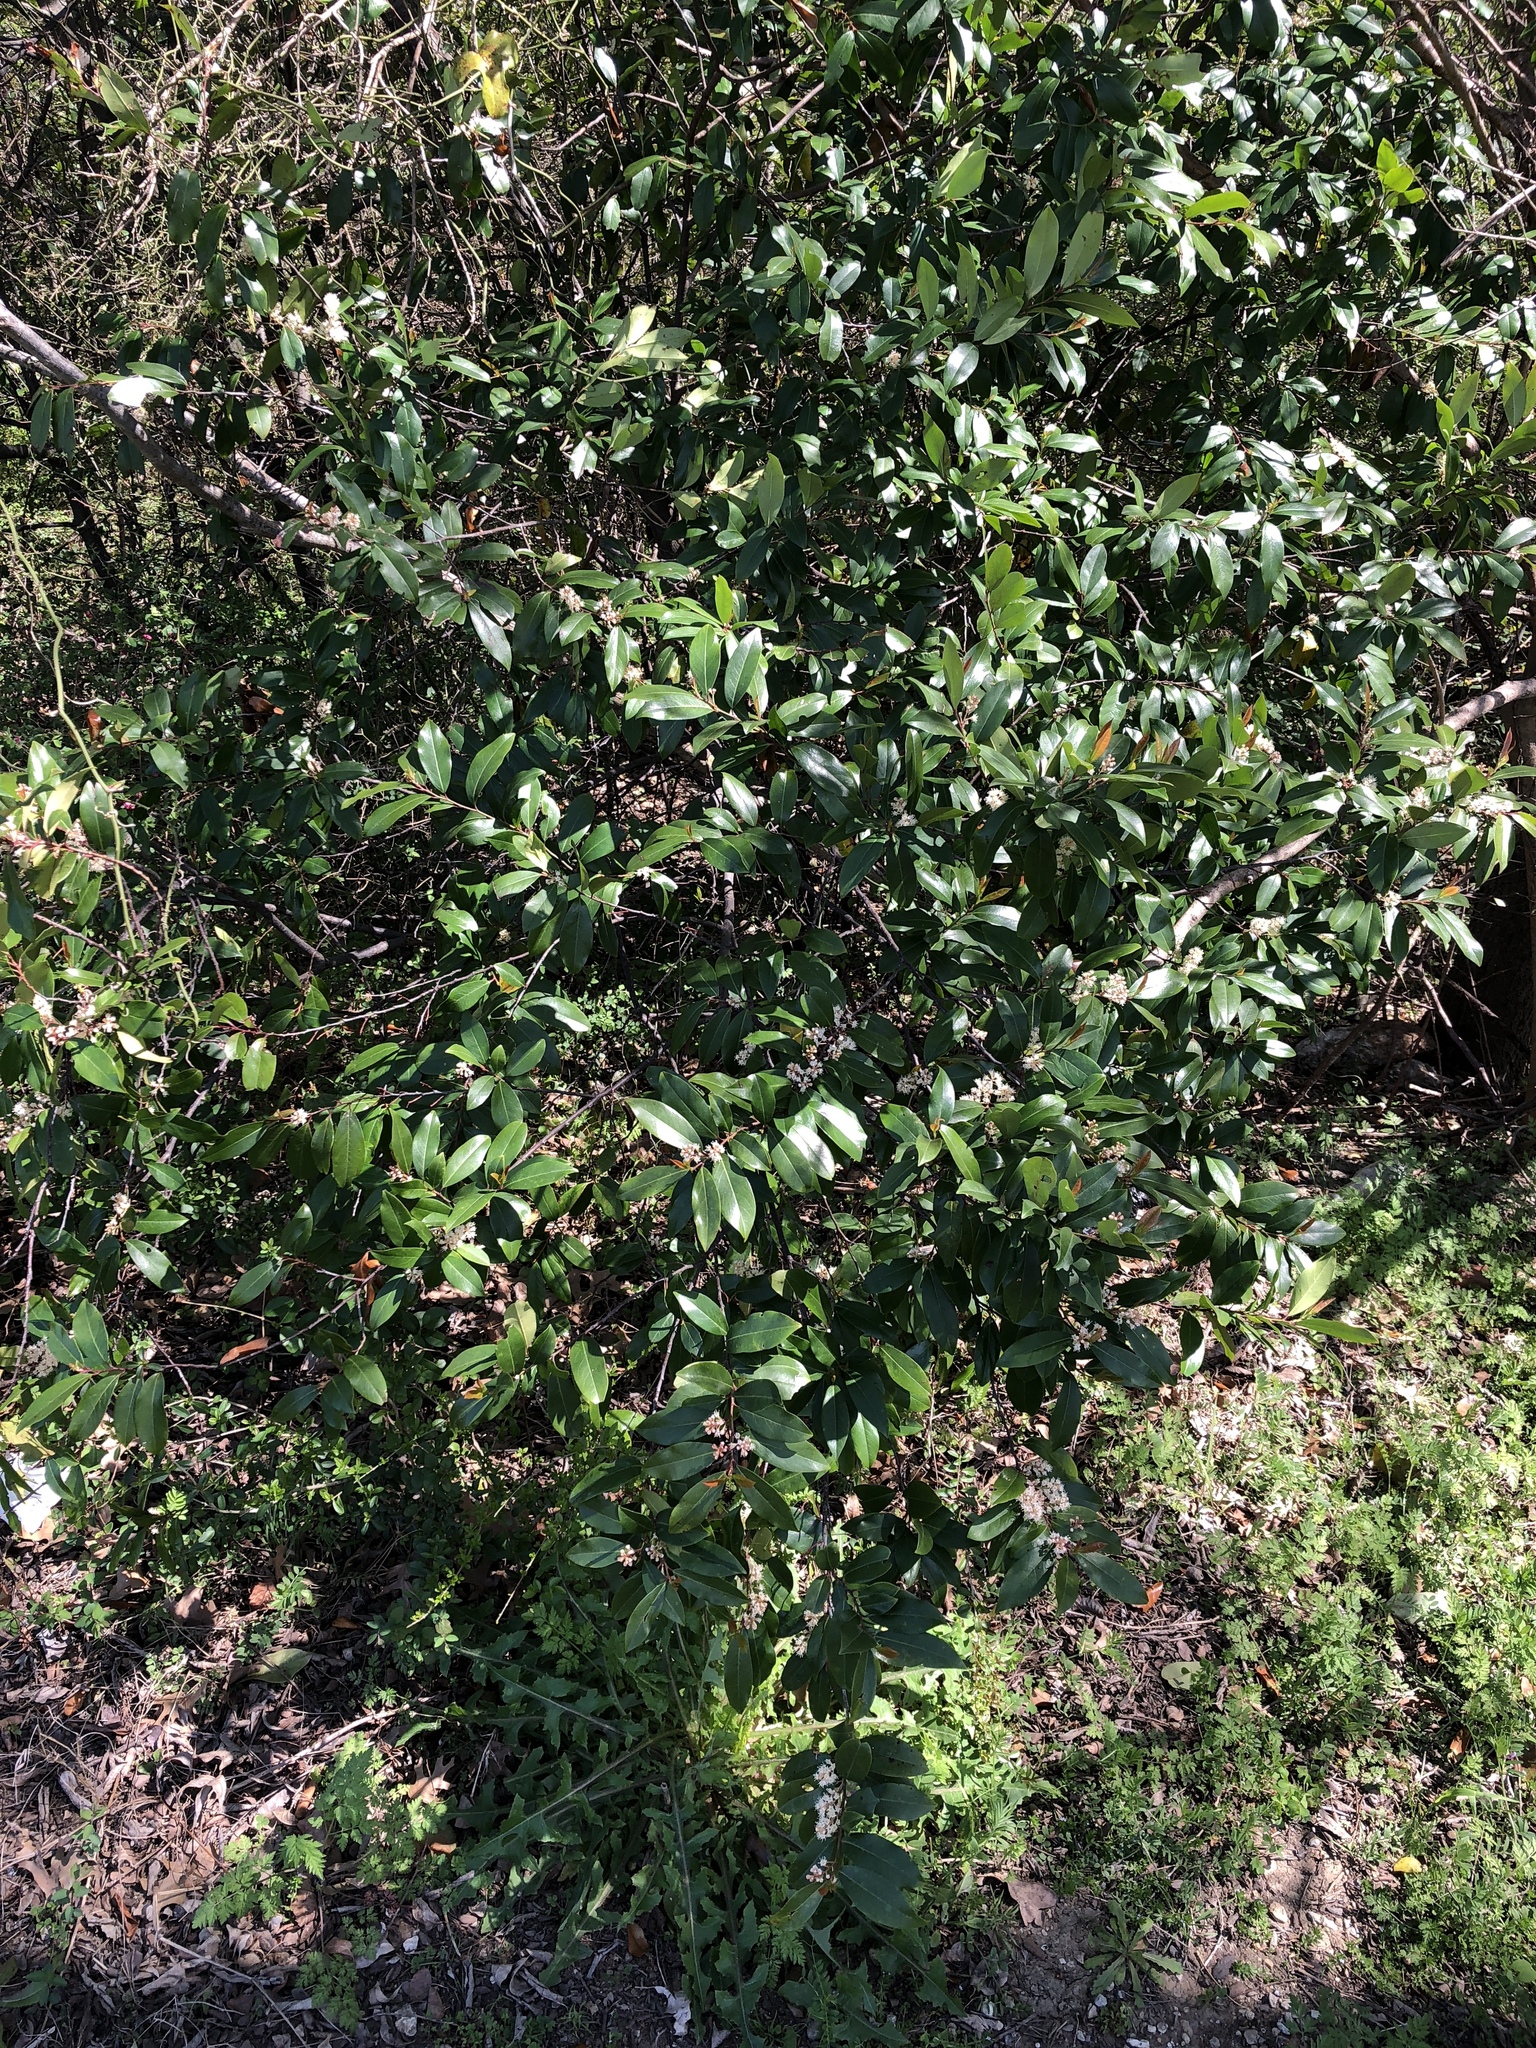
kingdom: Plantae
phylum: Tracheophyta
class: Magnoliopsida
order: Rosales
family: Rosaceae
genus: Prunus
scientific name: Prunus caroliniana
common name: Carolina laurel cherry
